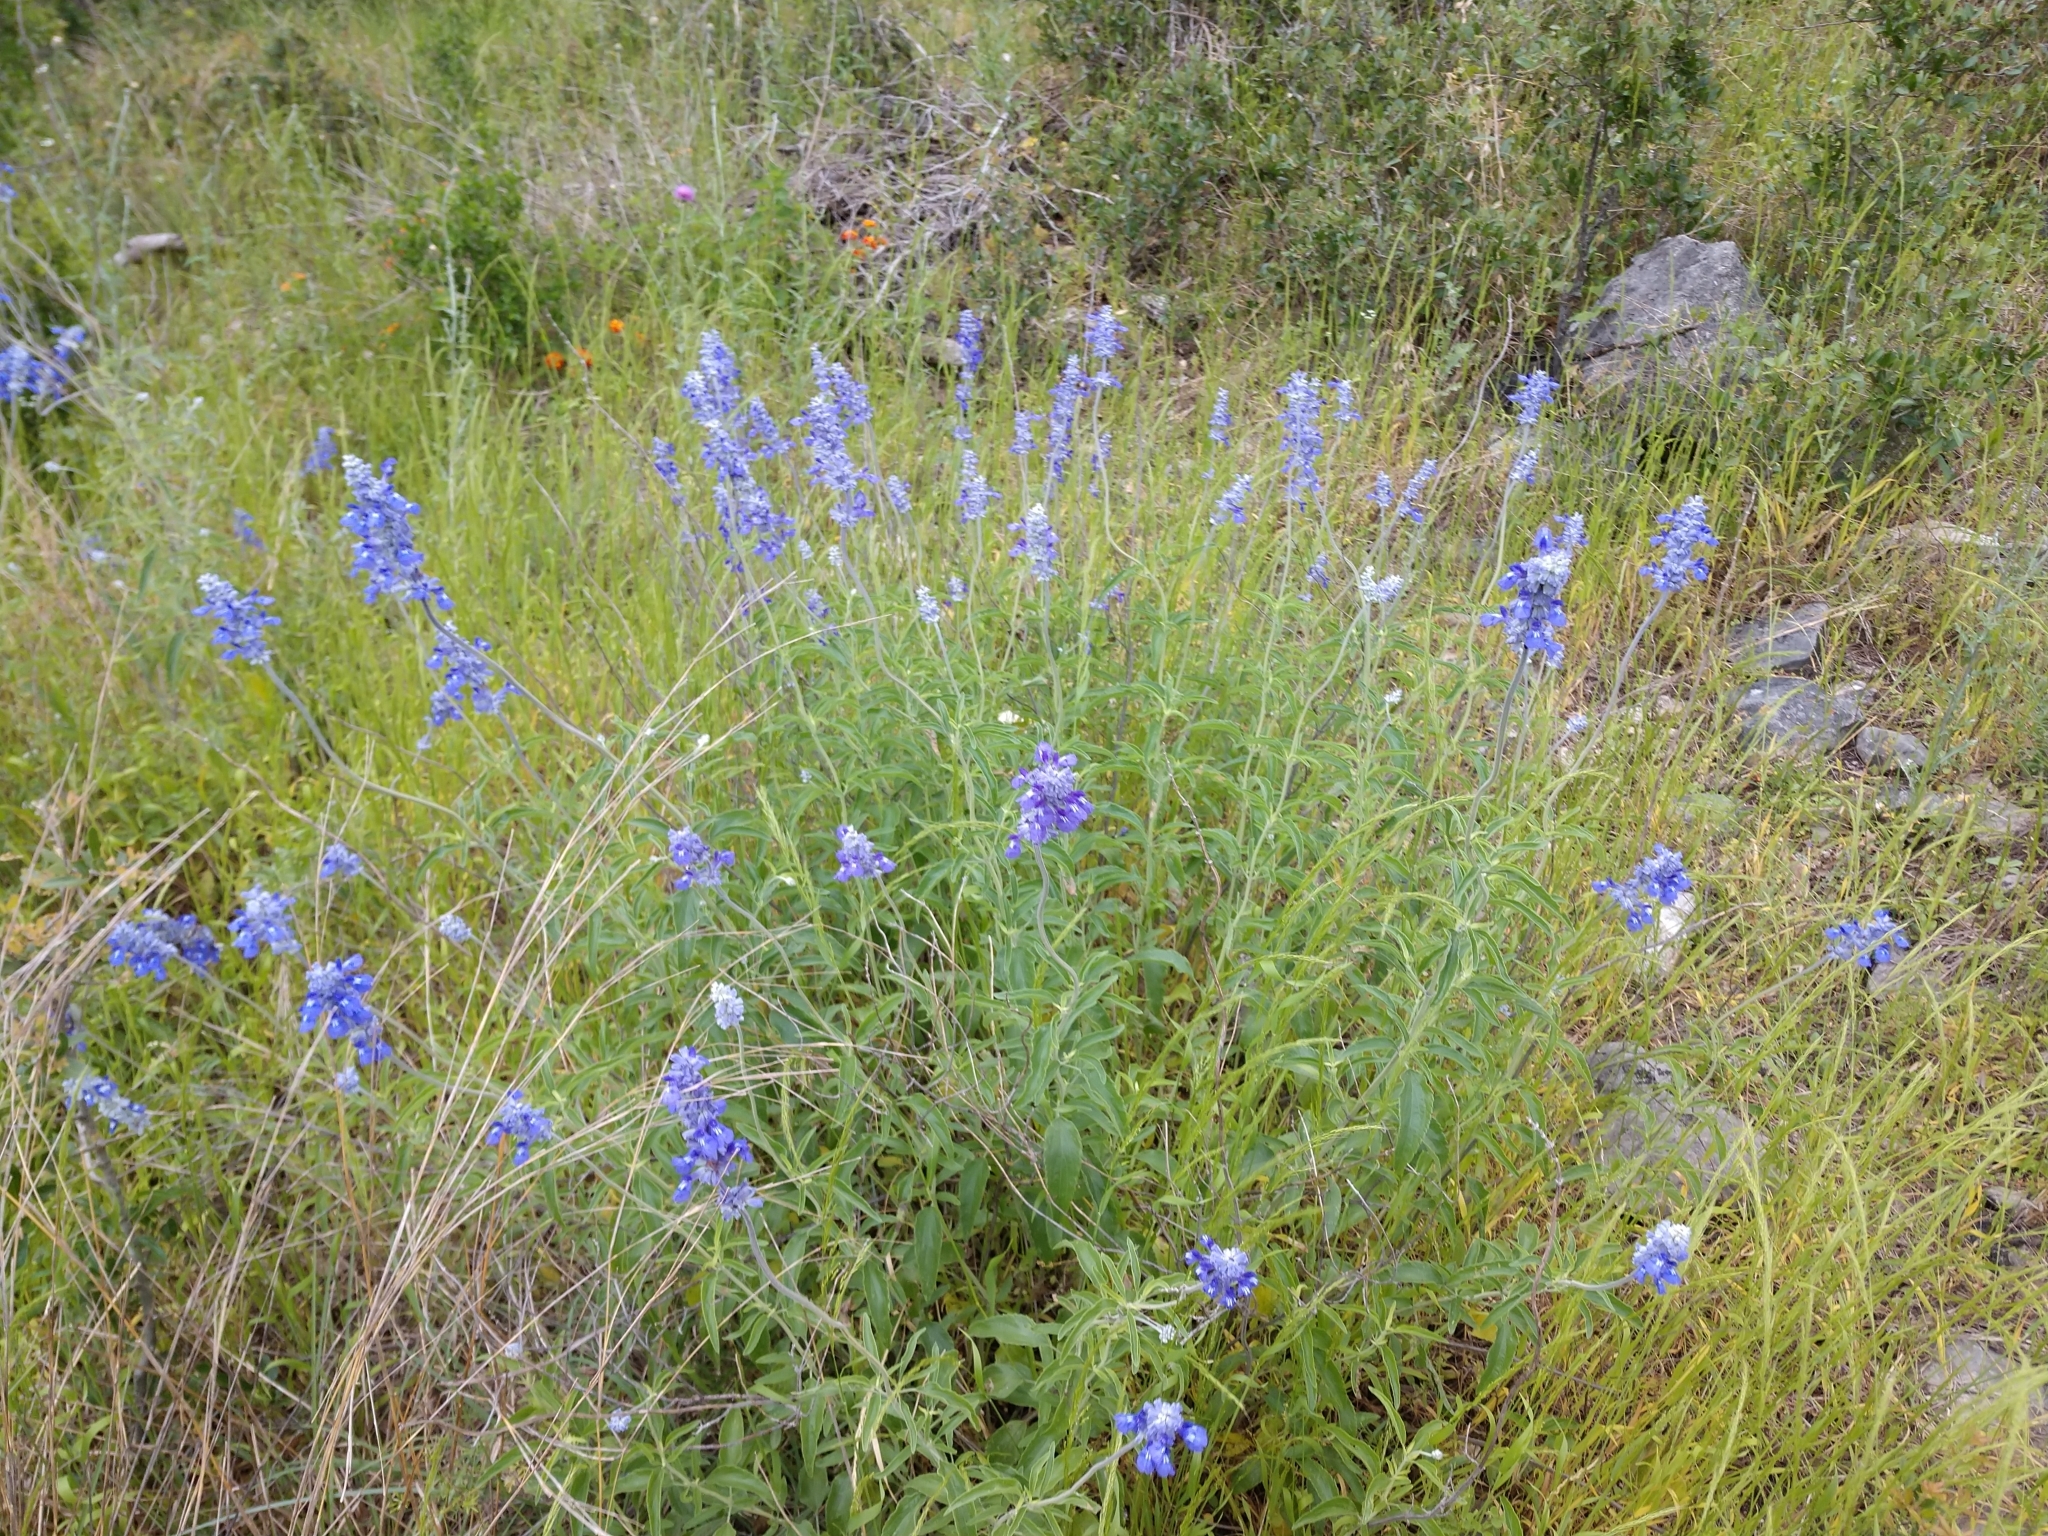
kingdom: Plantae
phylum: Tracheophyta
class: Magnoliopsida
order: Lamiales
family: Lamiaceae
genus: Salvia
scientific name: Salvia farinacea
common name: Mealy sage
